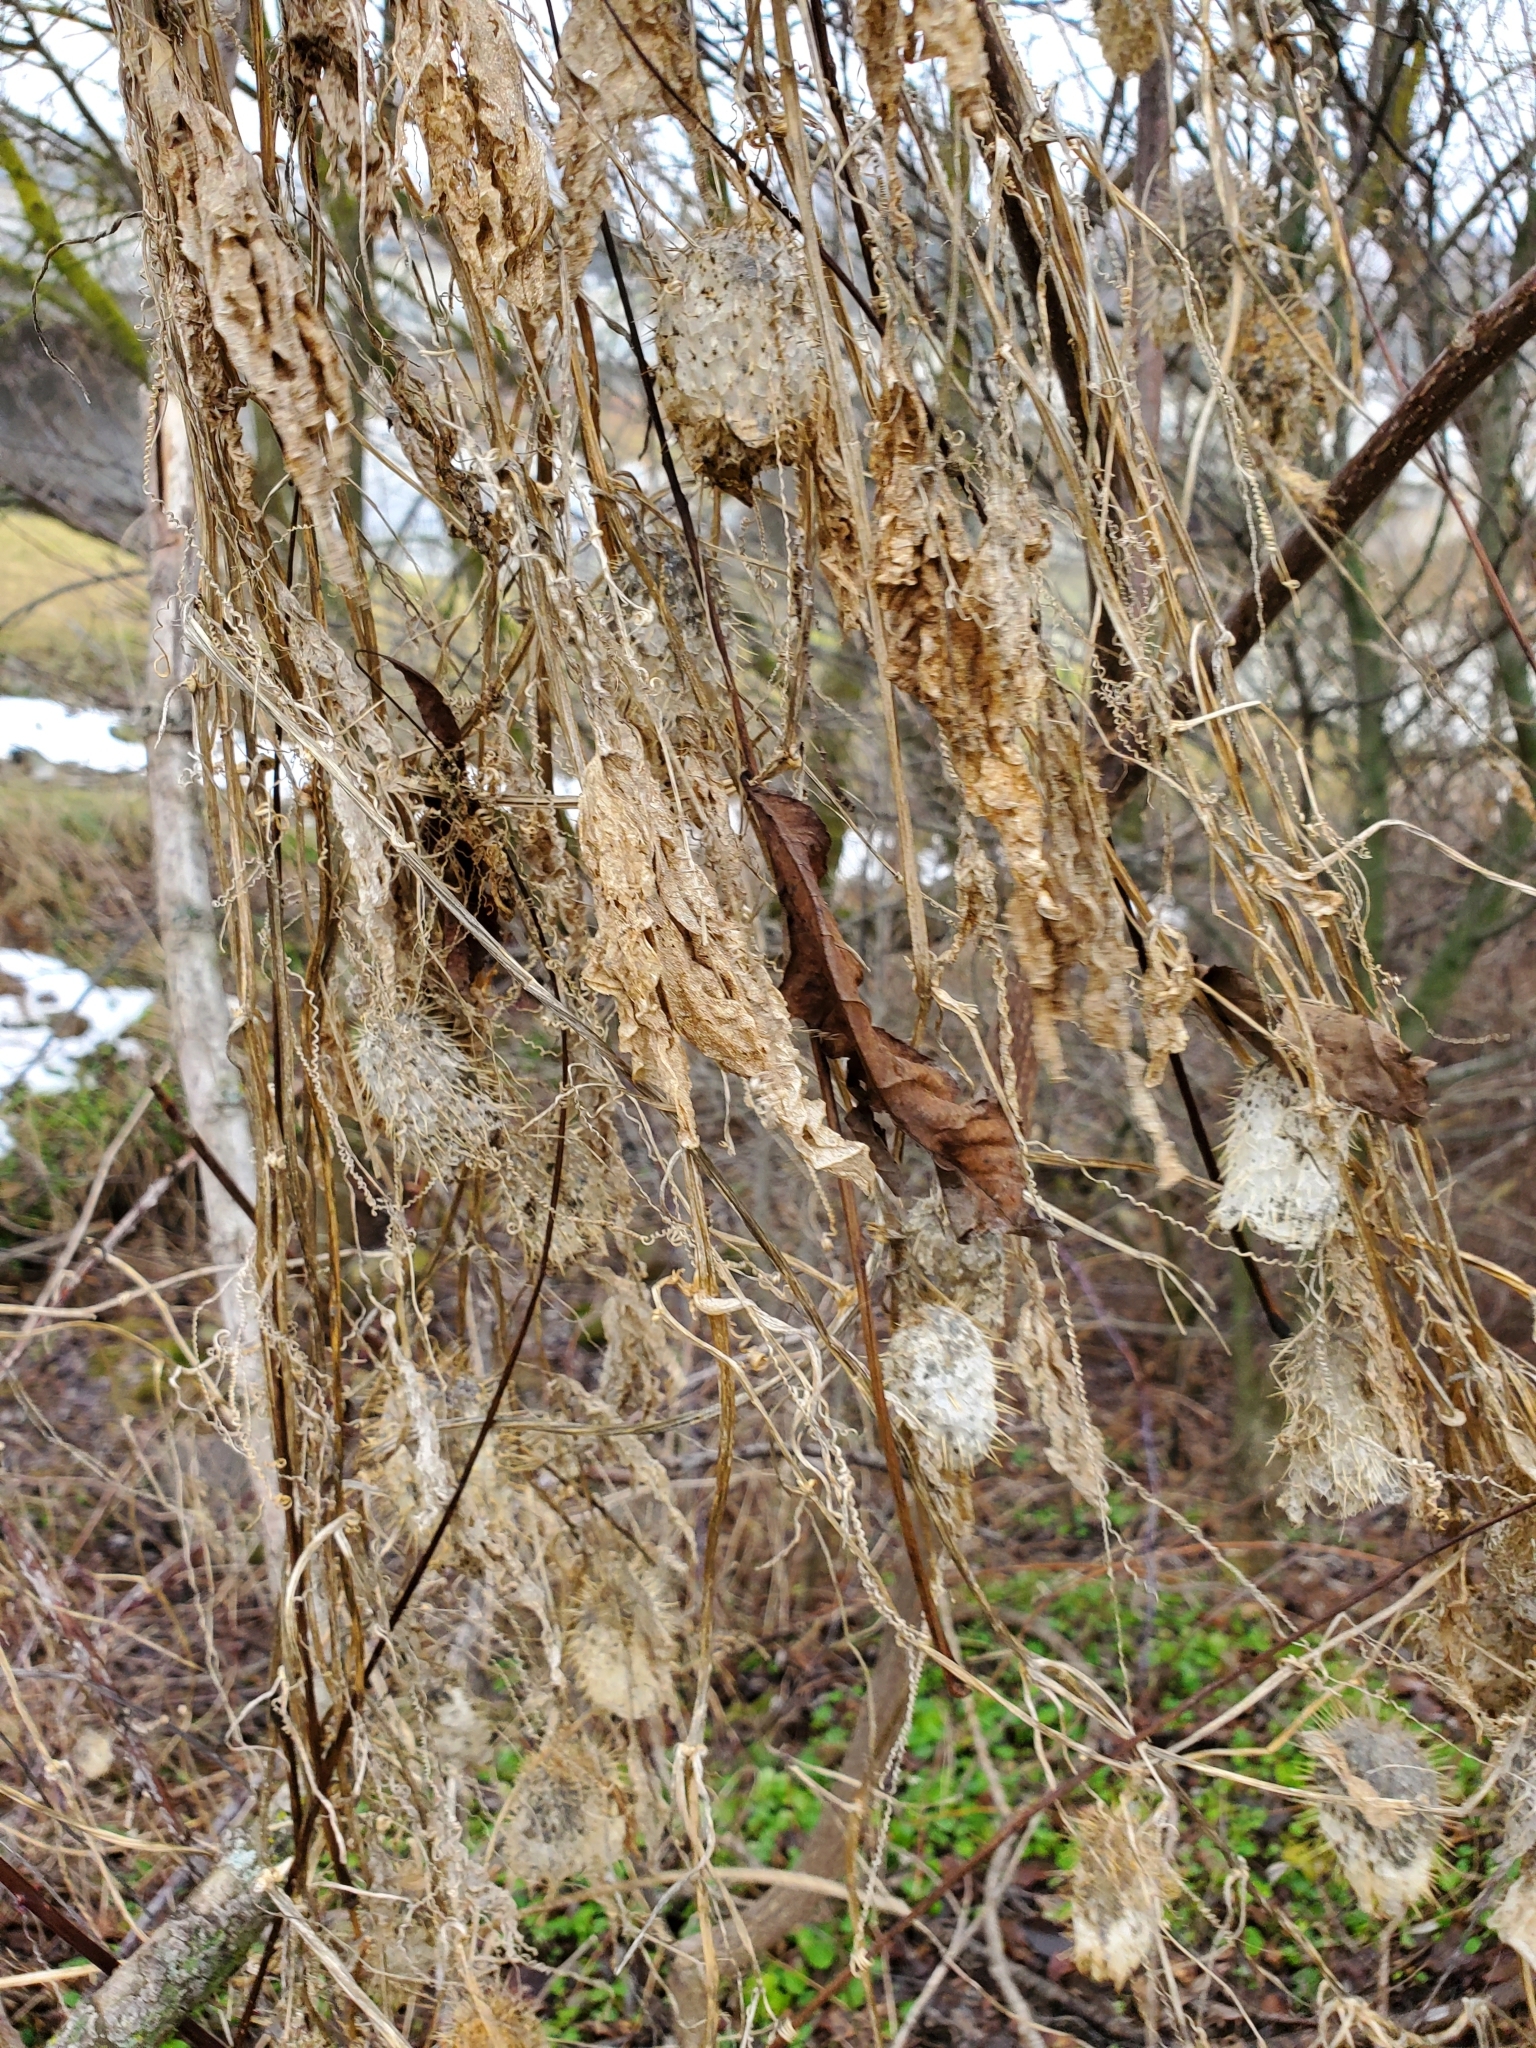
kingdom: Plantae
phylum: Tracheophyta
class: Magnoliopsida
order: Cucurbitales
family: Cucurbitaceae
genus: Echinocystis
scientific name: Echinocystis lobata
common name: Wild cucumber
